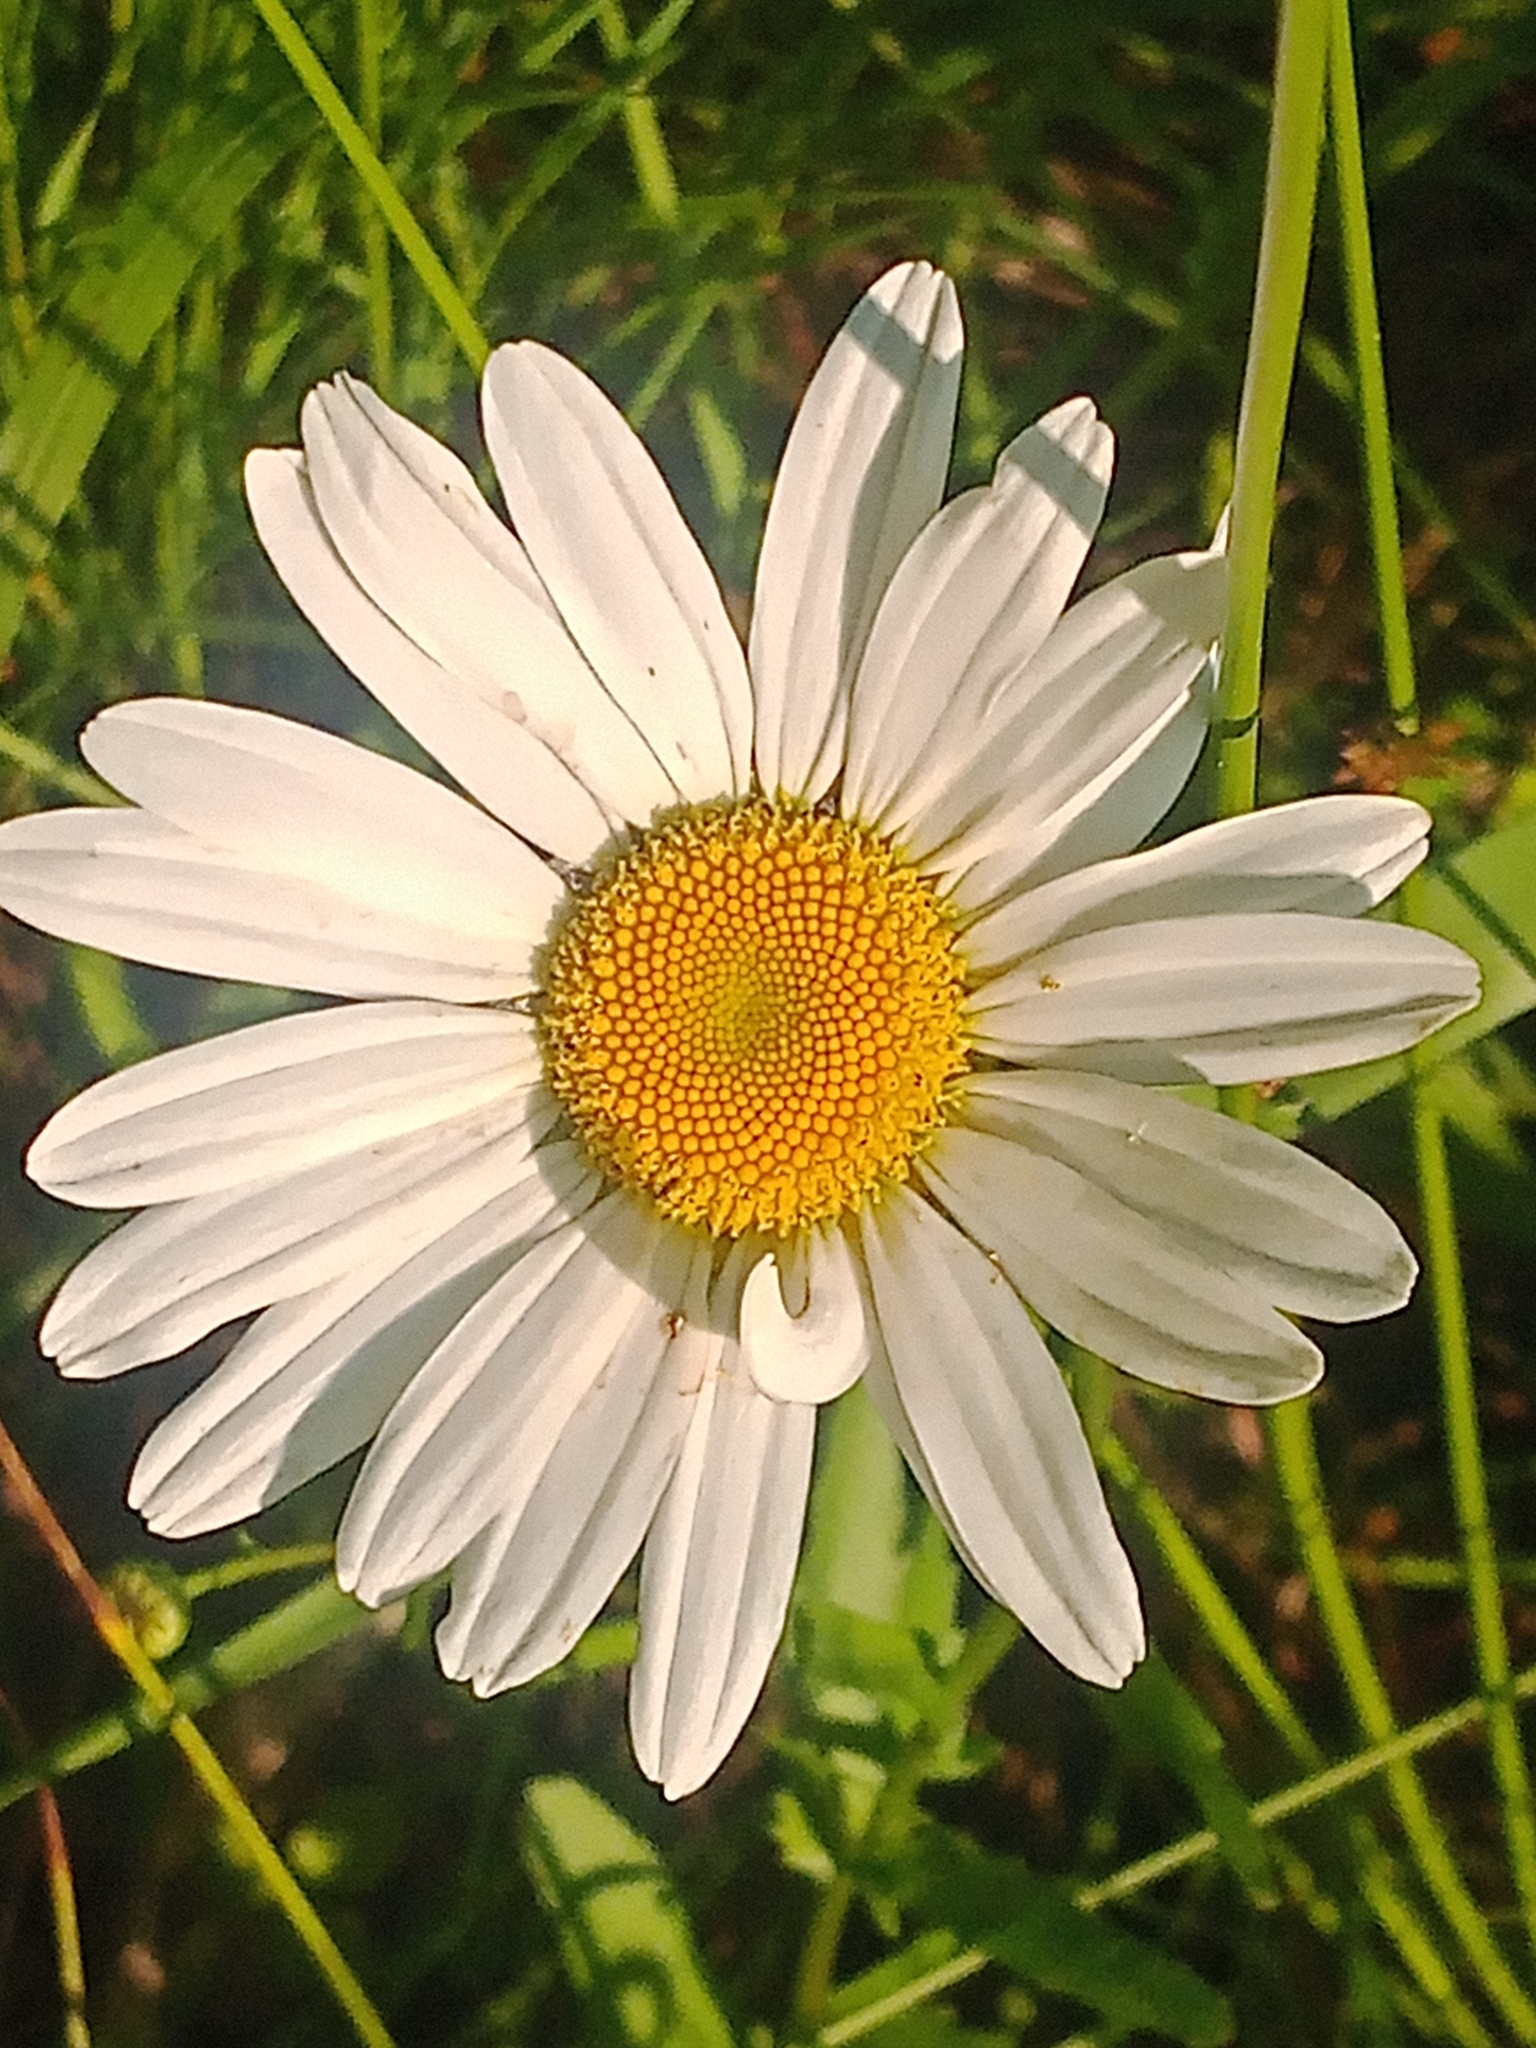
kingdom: Plantae
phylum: Tracheophyta
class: Magnoliopsida
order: Asterales
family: Asteraceae
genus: Leucanthemum
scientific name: Leucanthemum vulgare
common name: Oxeye daisy
